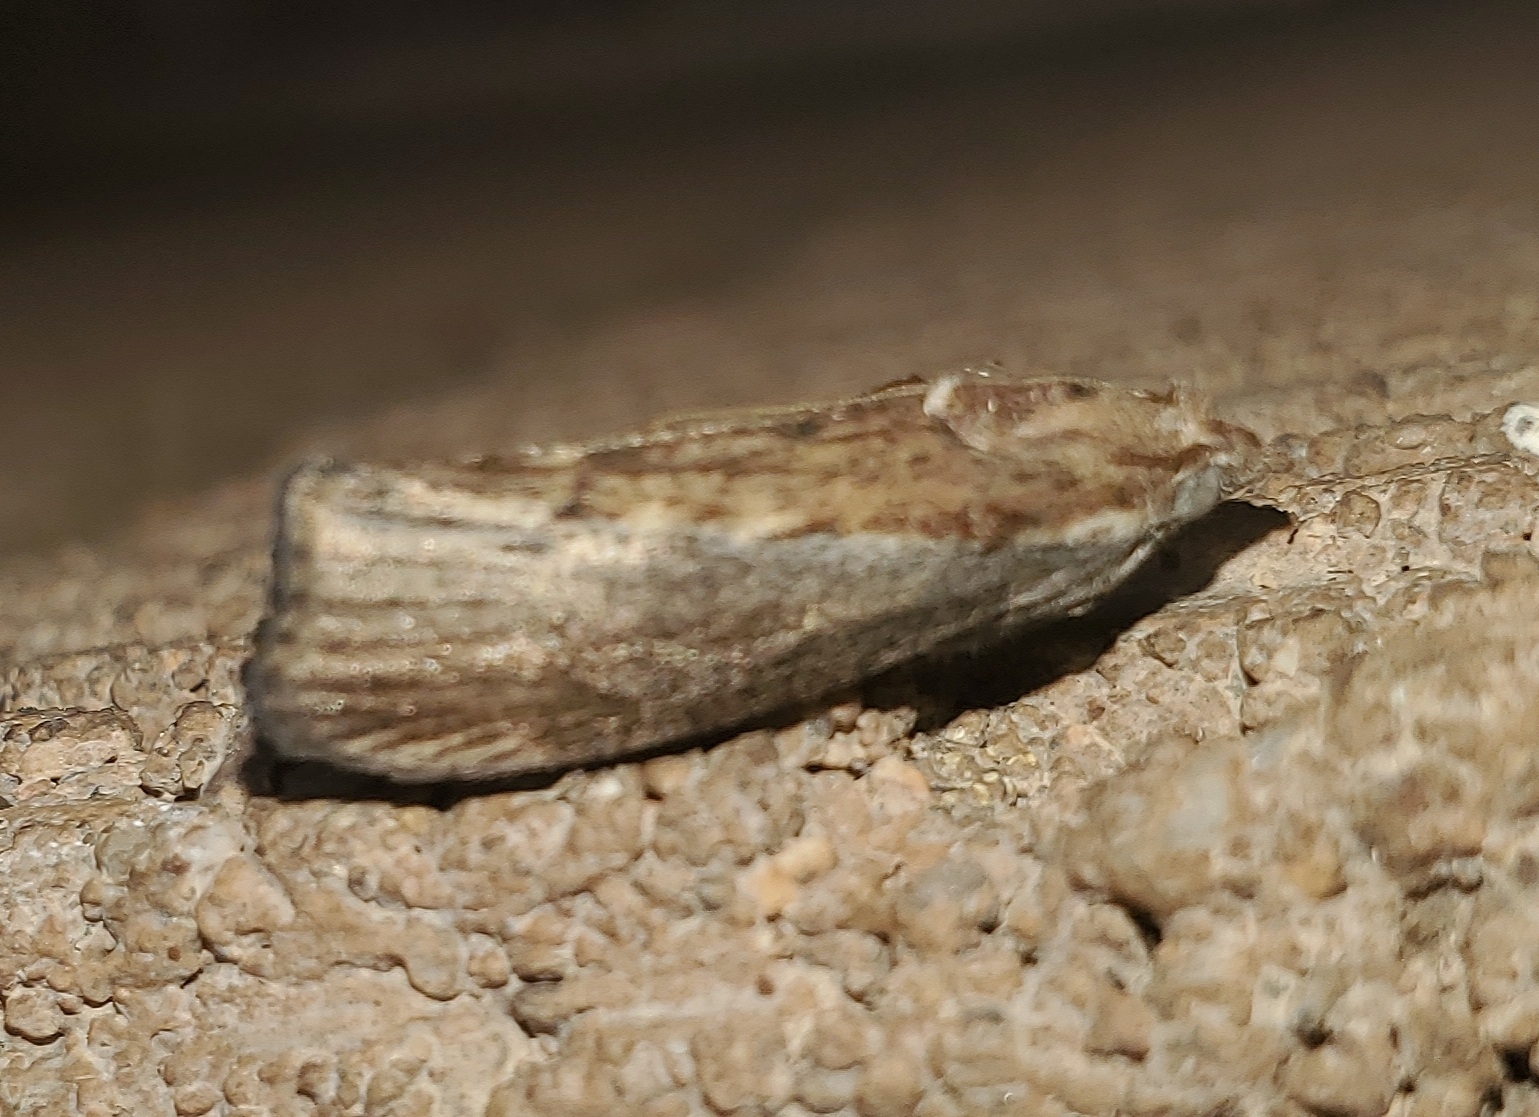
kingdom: Animalia
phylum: Arthropoda
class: Insecta
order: Lepidoptera
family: Pyralidae
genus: Galleria
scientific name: Galleria mellonella
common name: Greater wax moth
